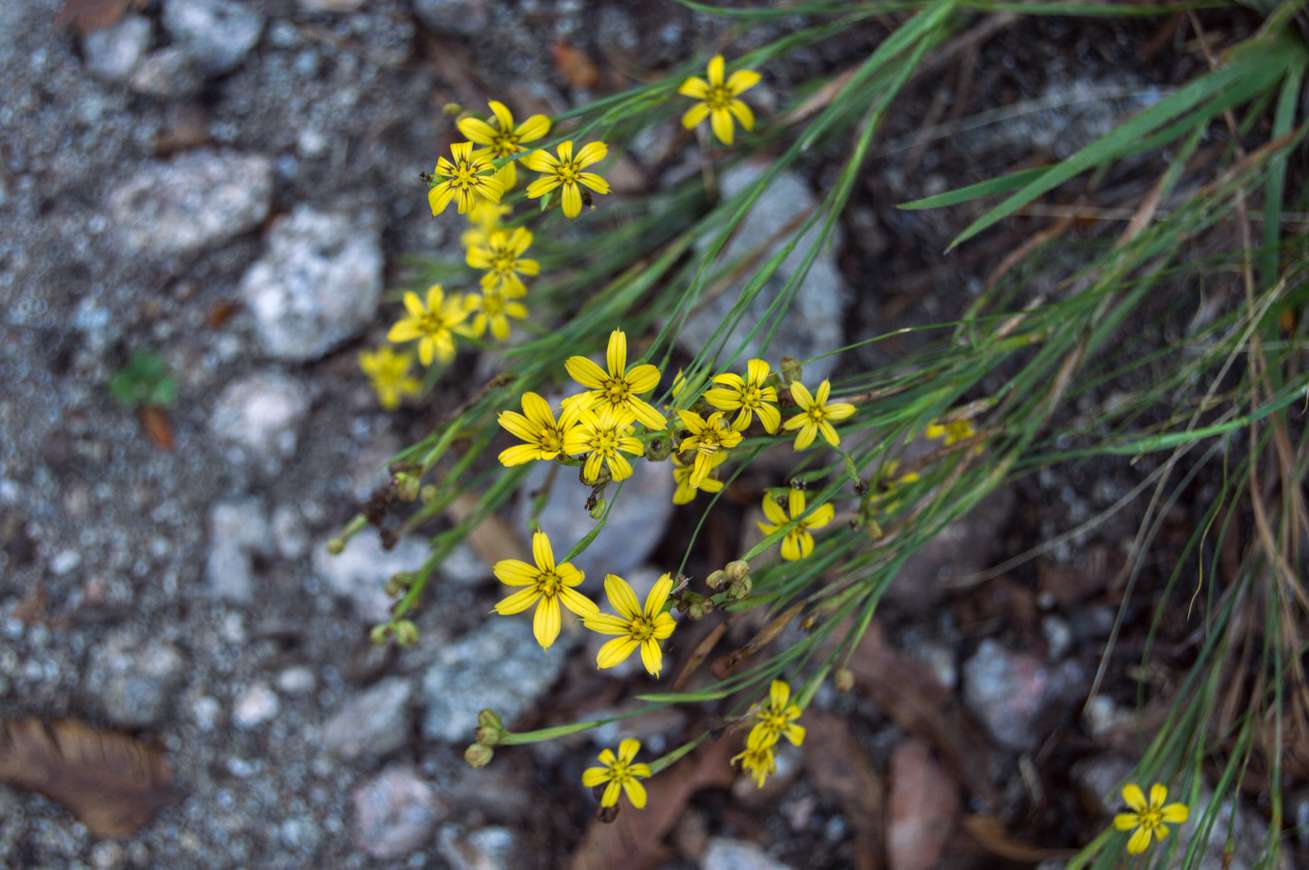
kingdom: Plantae
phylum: Tracheophyta
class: Liliopsida
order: Asparagales
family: Iridaceae
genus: Sisyrinchium
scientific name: Sisyrinchium pachyrhizum
